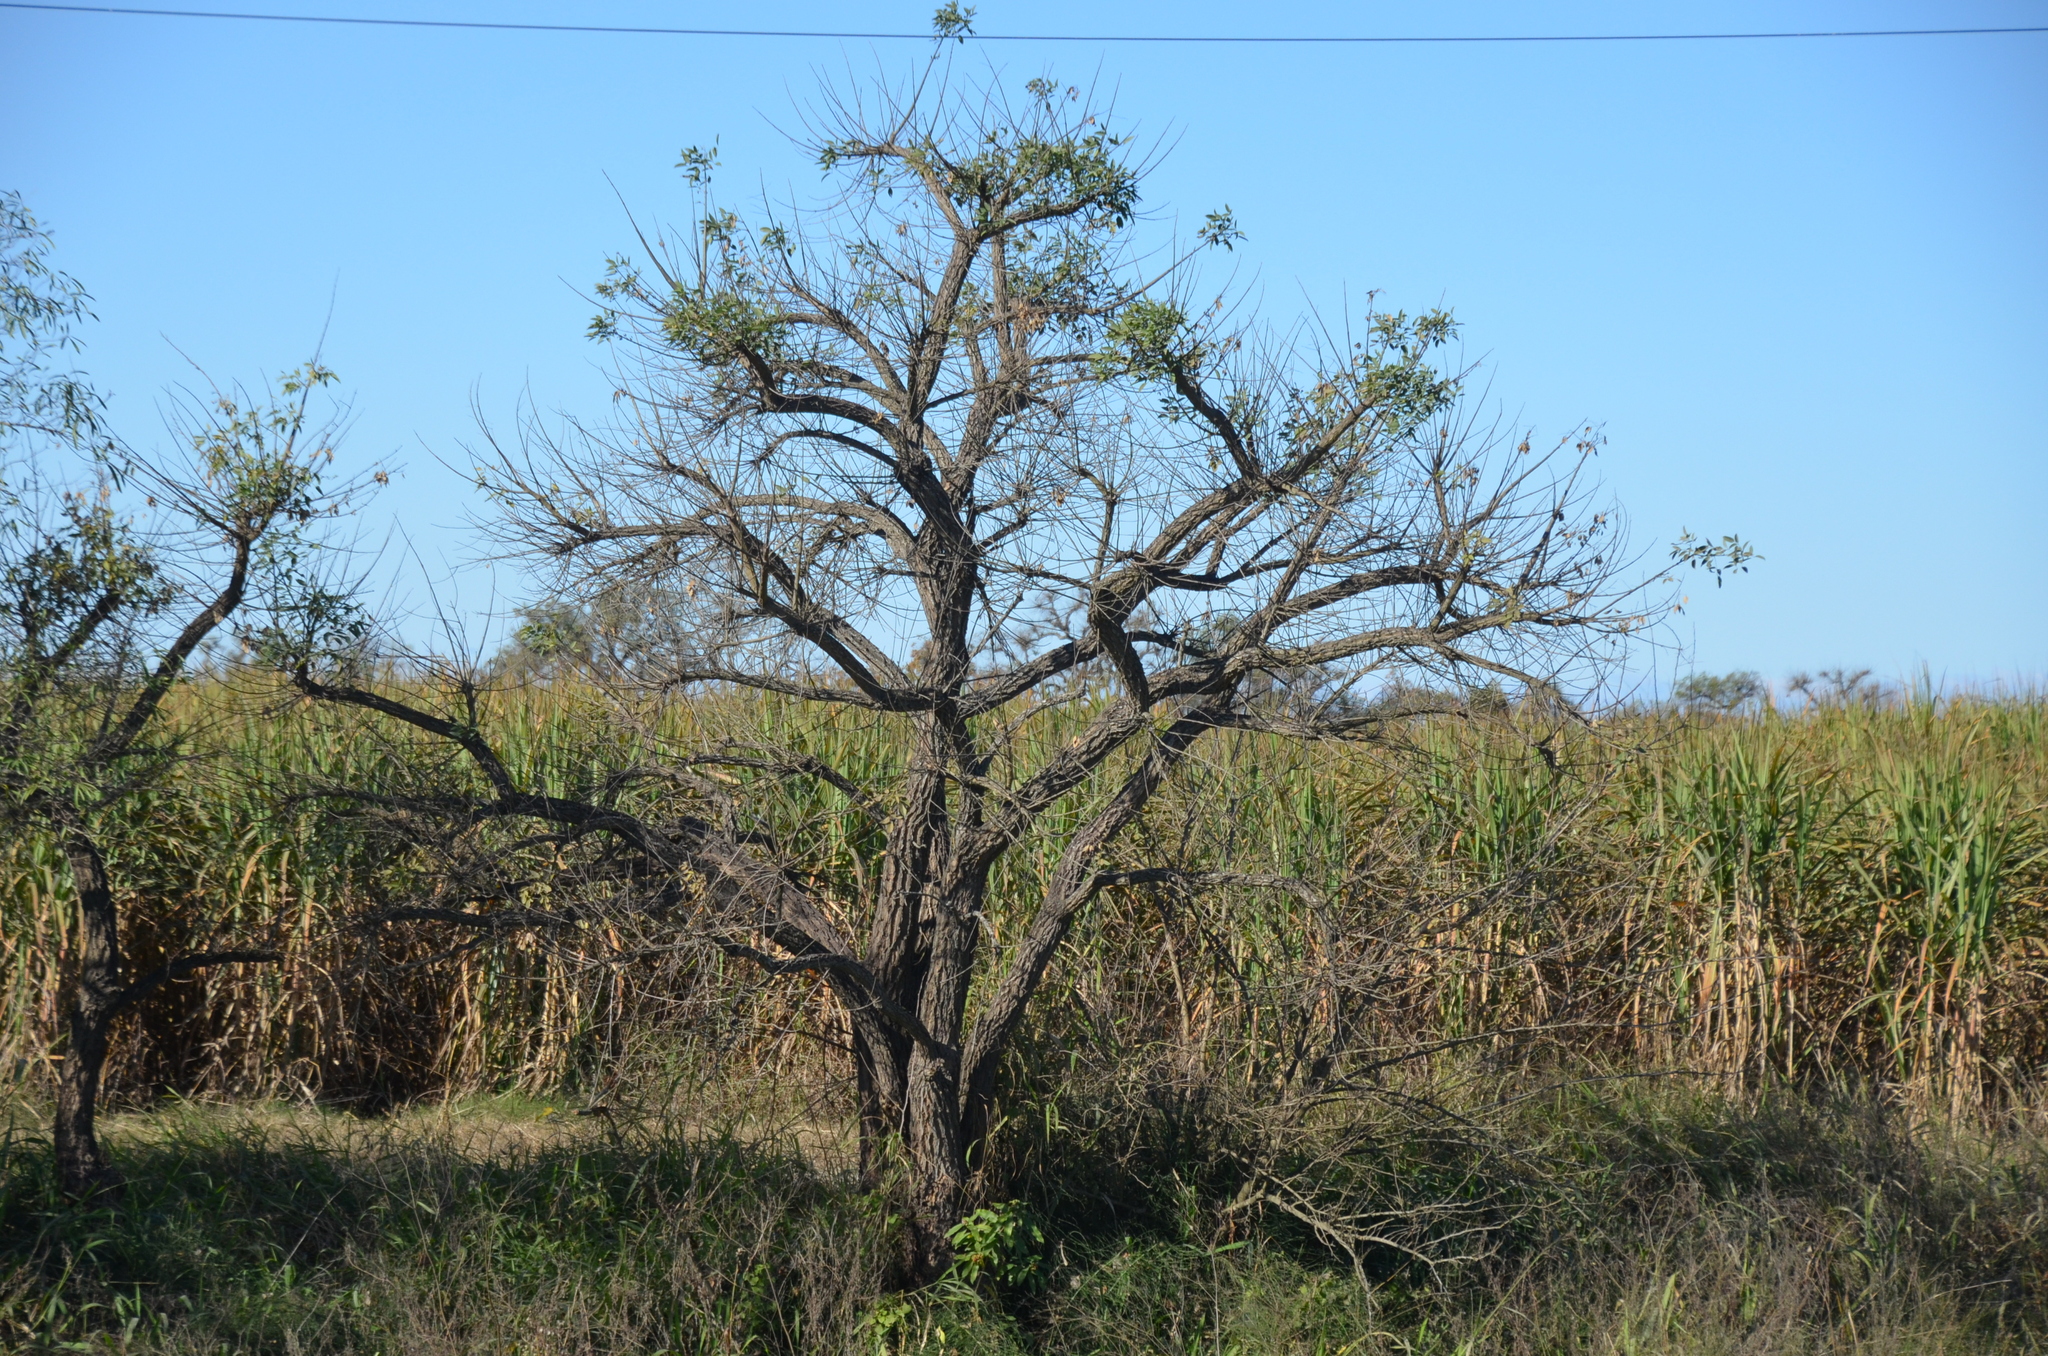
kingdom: Plantae
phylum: Tracheophyta
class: Magnoliopsida
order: Fabales
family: Fabaceae
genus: Erythrina
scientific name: Erythrina crista-galli
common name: Cockspur coral tree
